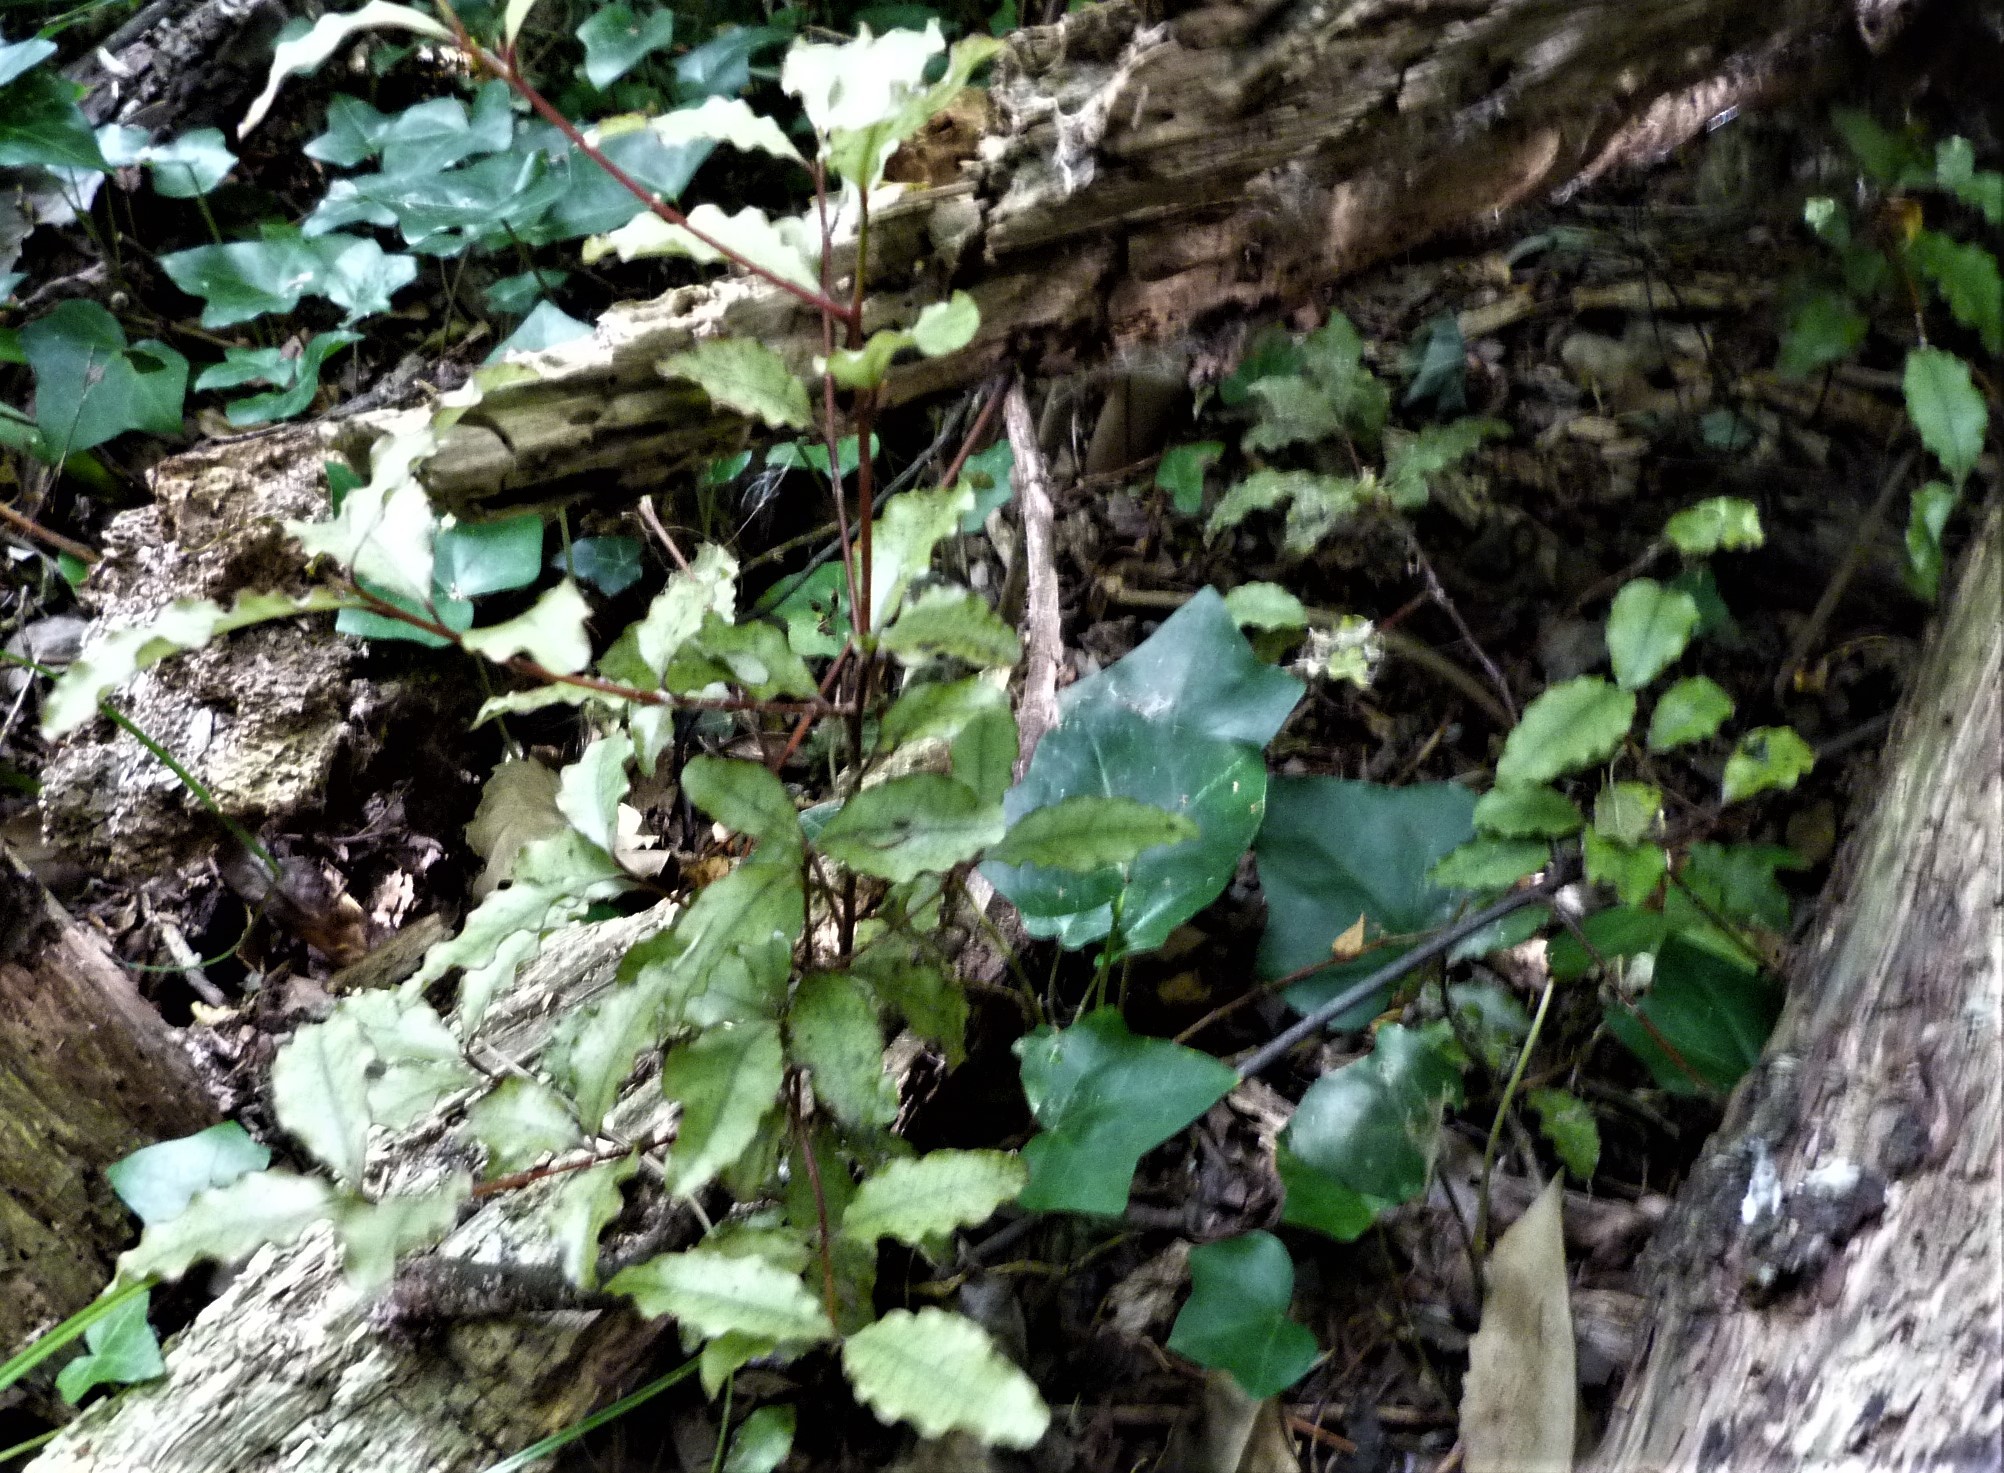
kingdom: Plantae
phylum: Tracheophyta
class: Magnoliopsida
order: Ericales
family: Primulaceae
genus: Myrsine
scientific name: Myrsine australis
